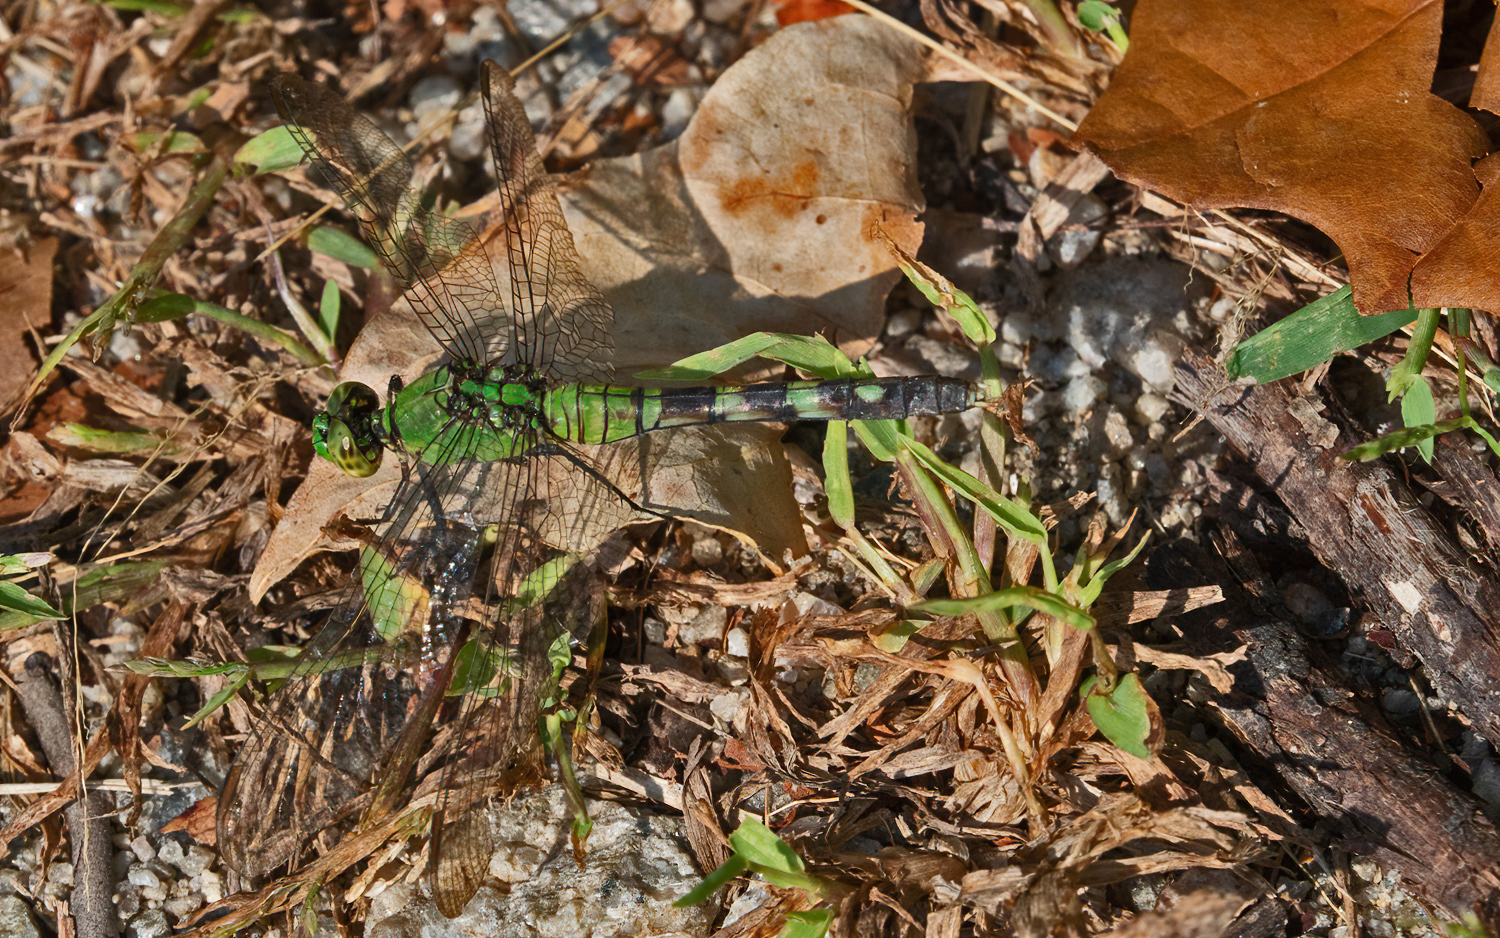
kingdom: Animalia
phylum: Arthropoda
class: Insecta
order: Odonata
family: Libellulidae
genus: Erythemis
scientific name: Erythemis simplicicollis
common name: Eastern pondhawk
